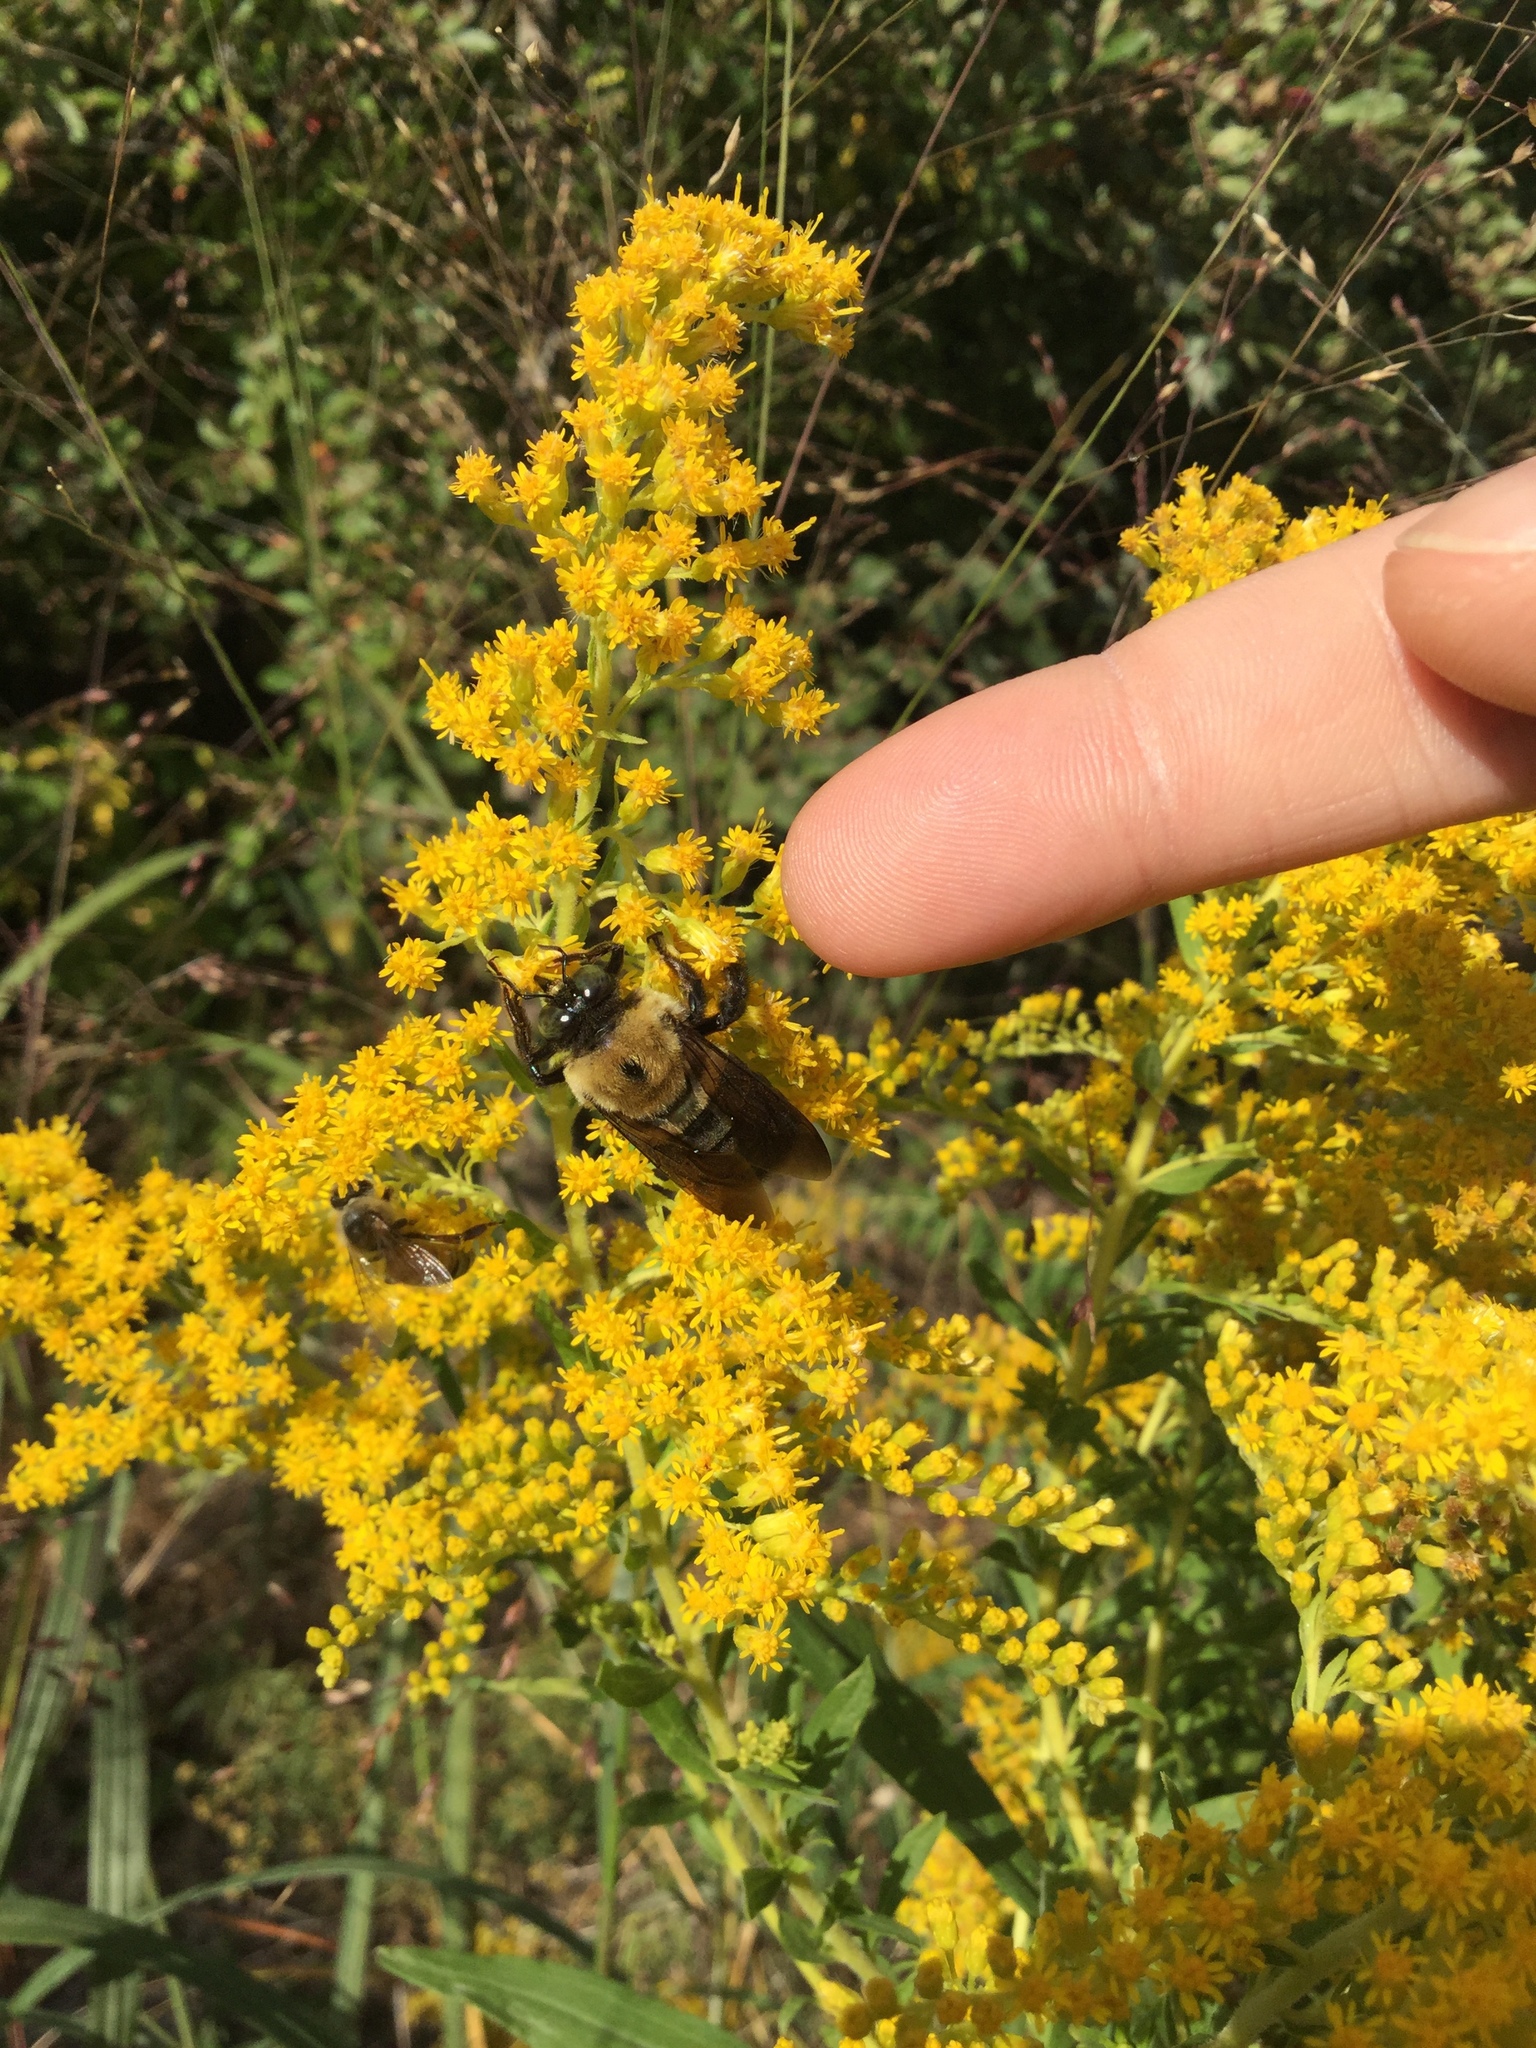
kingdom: Animalia
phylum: Arthropoda
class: Insecta
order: Hymenoptera
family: Apidae
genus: Xylocopa
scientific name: Xylocopa virginica
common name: Carpenter bee
